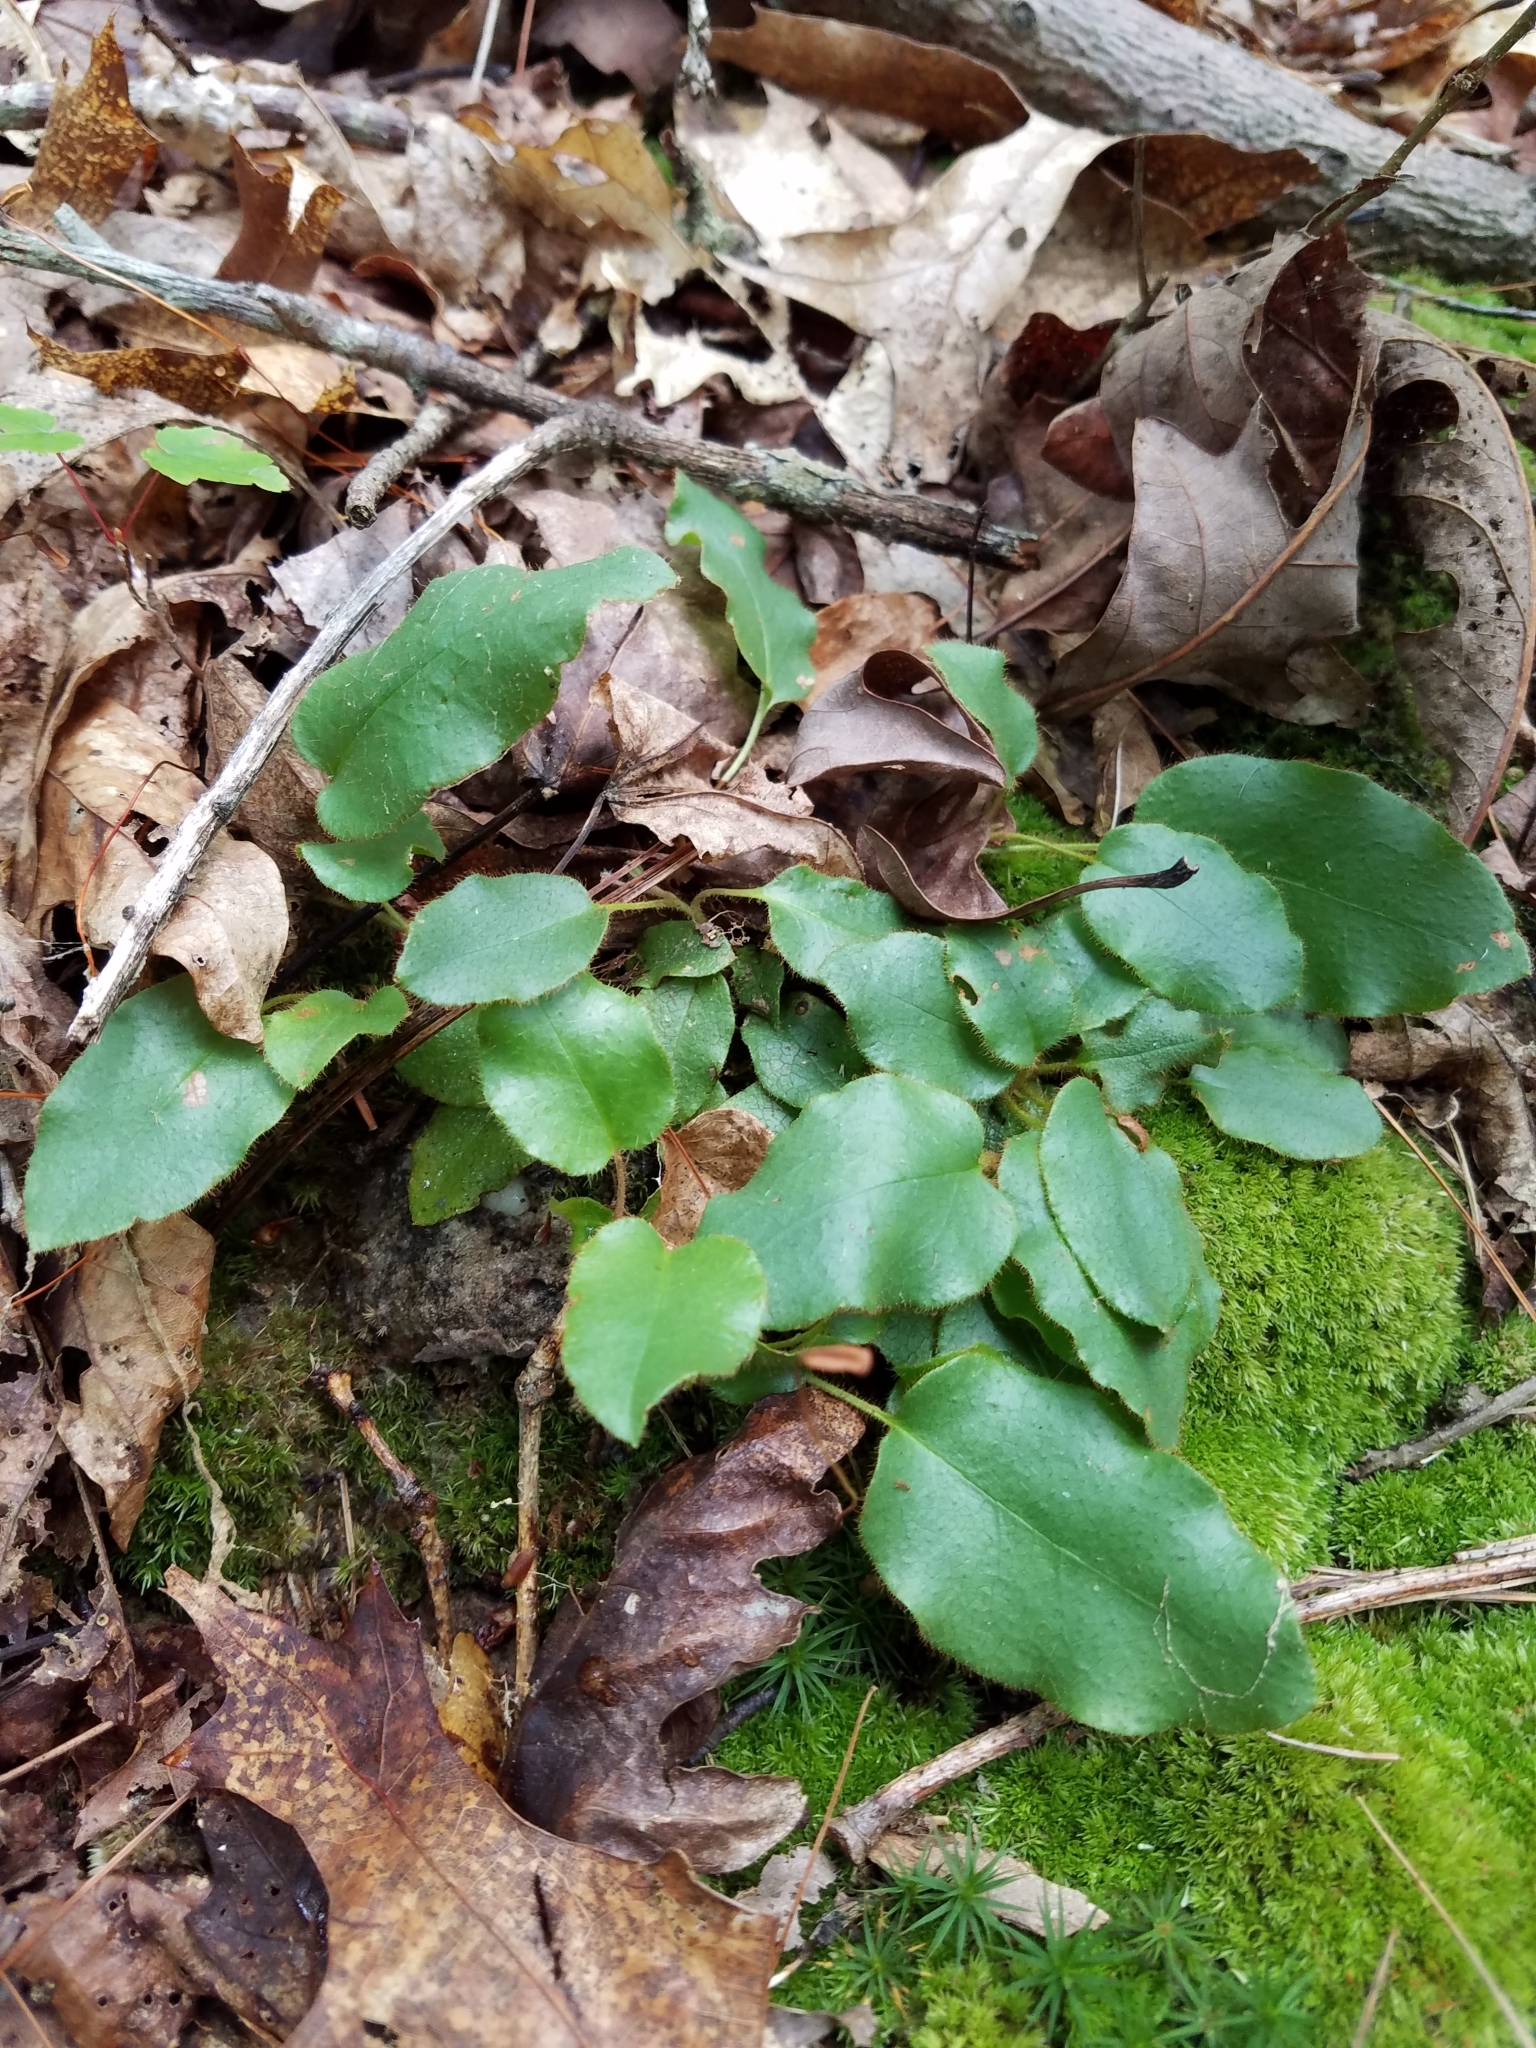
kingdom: Plantae
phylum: Tracheophyta
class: Magnoliopsida
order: Ericales
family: Ericaceae
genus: Epigaea
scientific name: Epigaea repens
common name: Gravelroot
